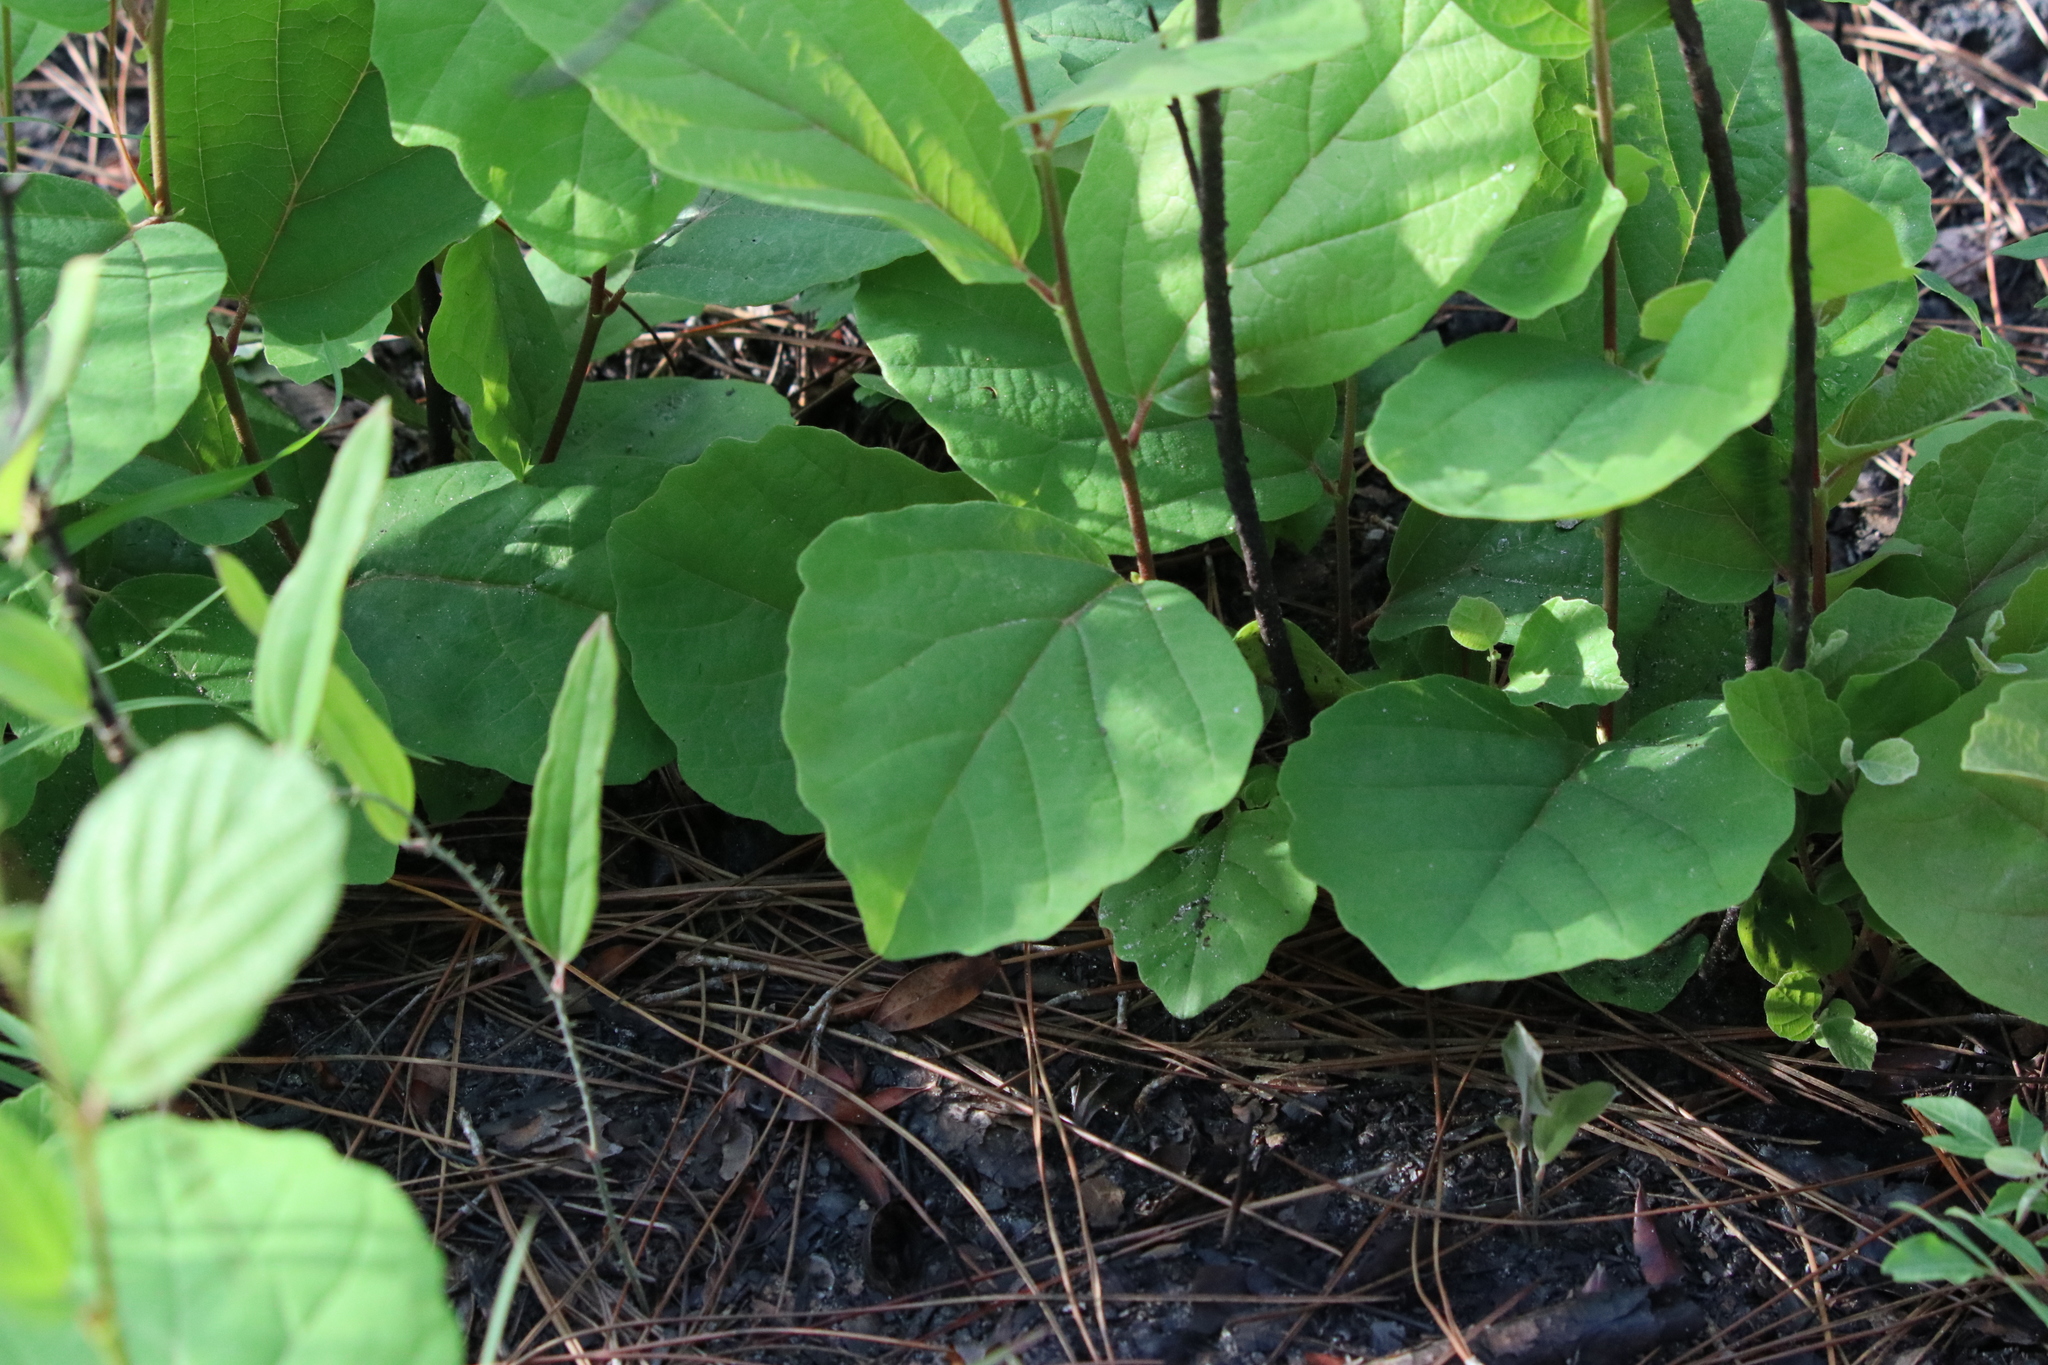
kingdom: Plantae
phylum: Tracheophyta
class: Magnoliopsida
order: Saxifragales
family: Hamamelidaceae
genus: Hamamelis
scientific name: Hamamelis virginiana
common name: Witch-hazel
